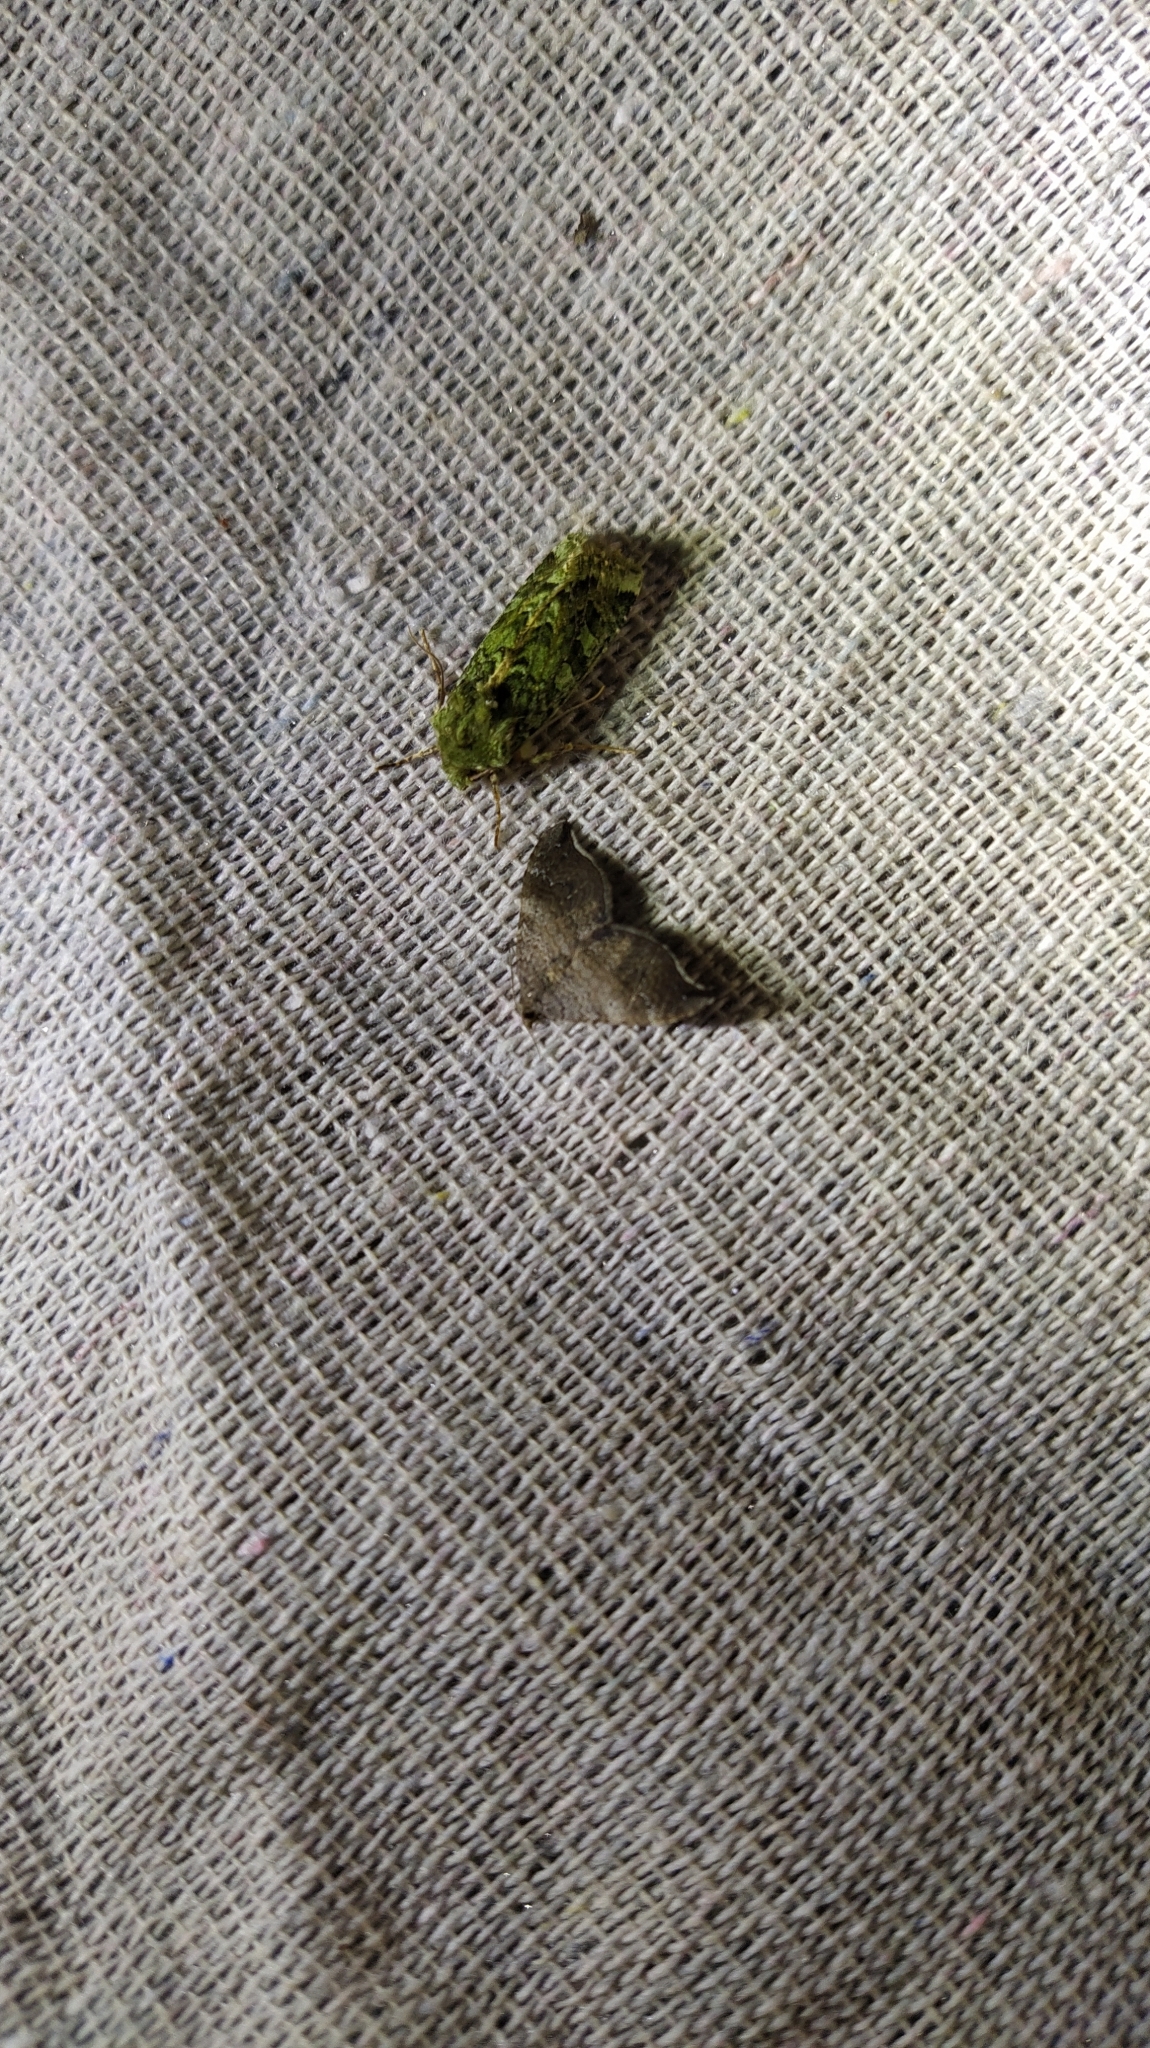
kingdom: Animalia
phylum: Arthropoda
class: Insecta
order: Lepidoptera
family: Geometridae
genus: Homodotis
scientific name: Homodotis megaspilata
